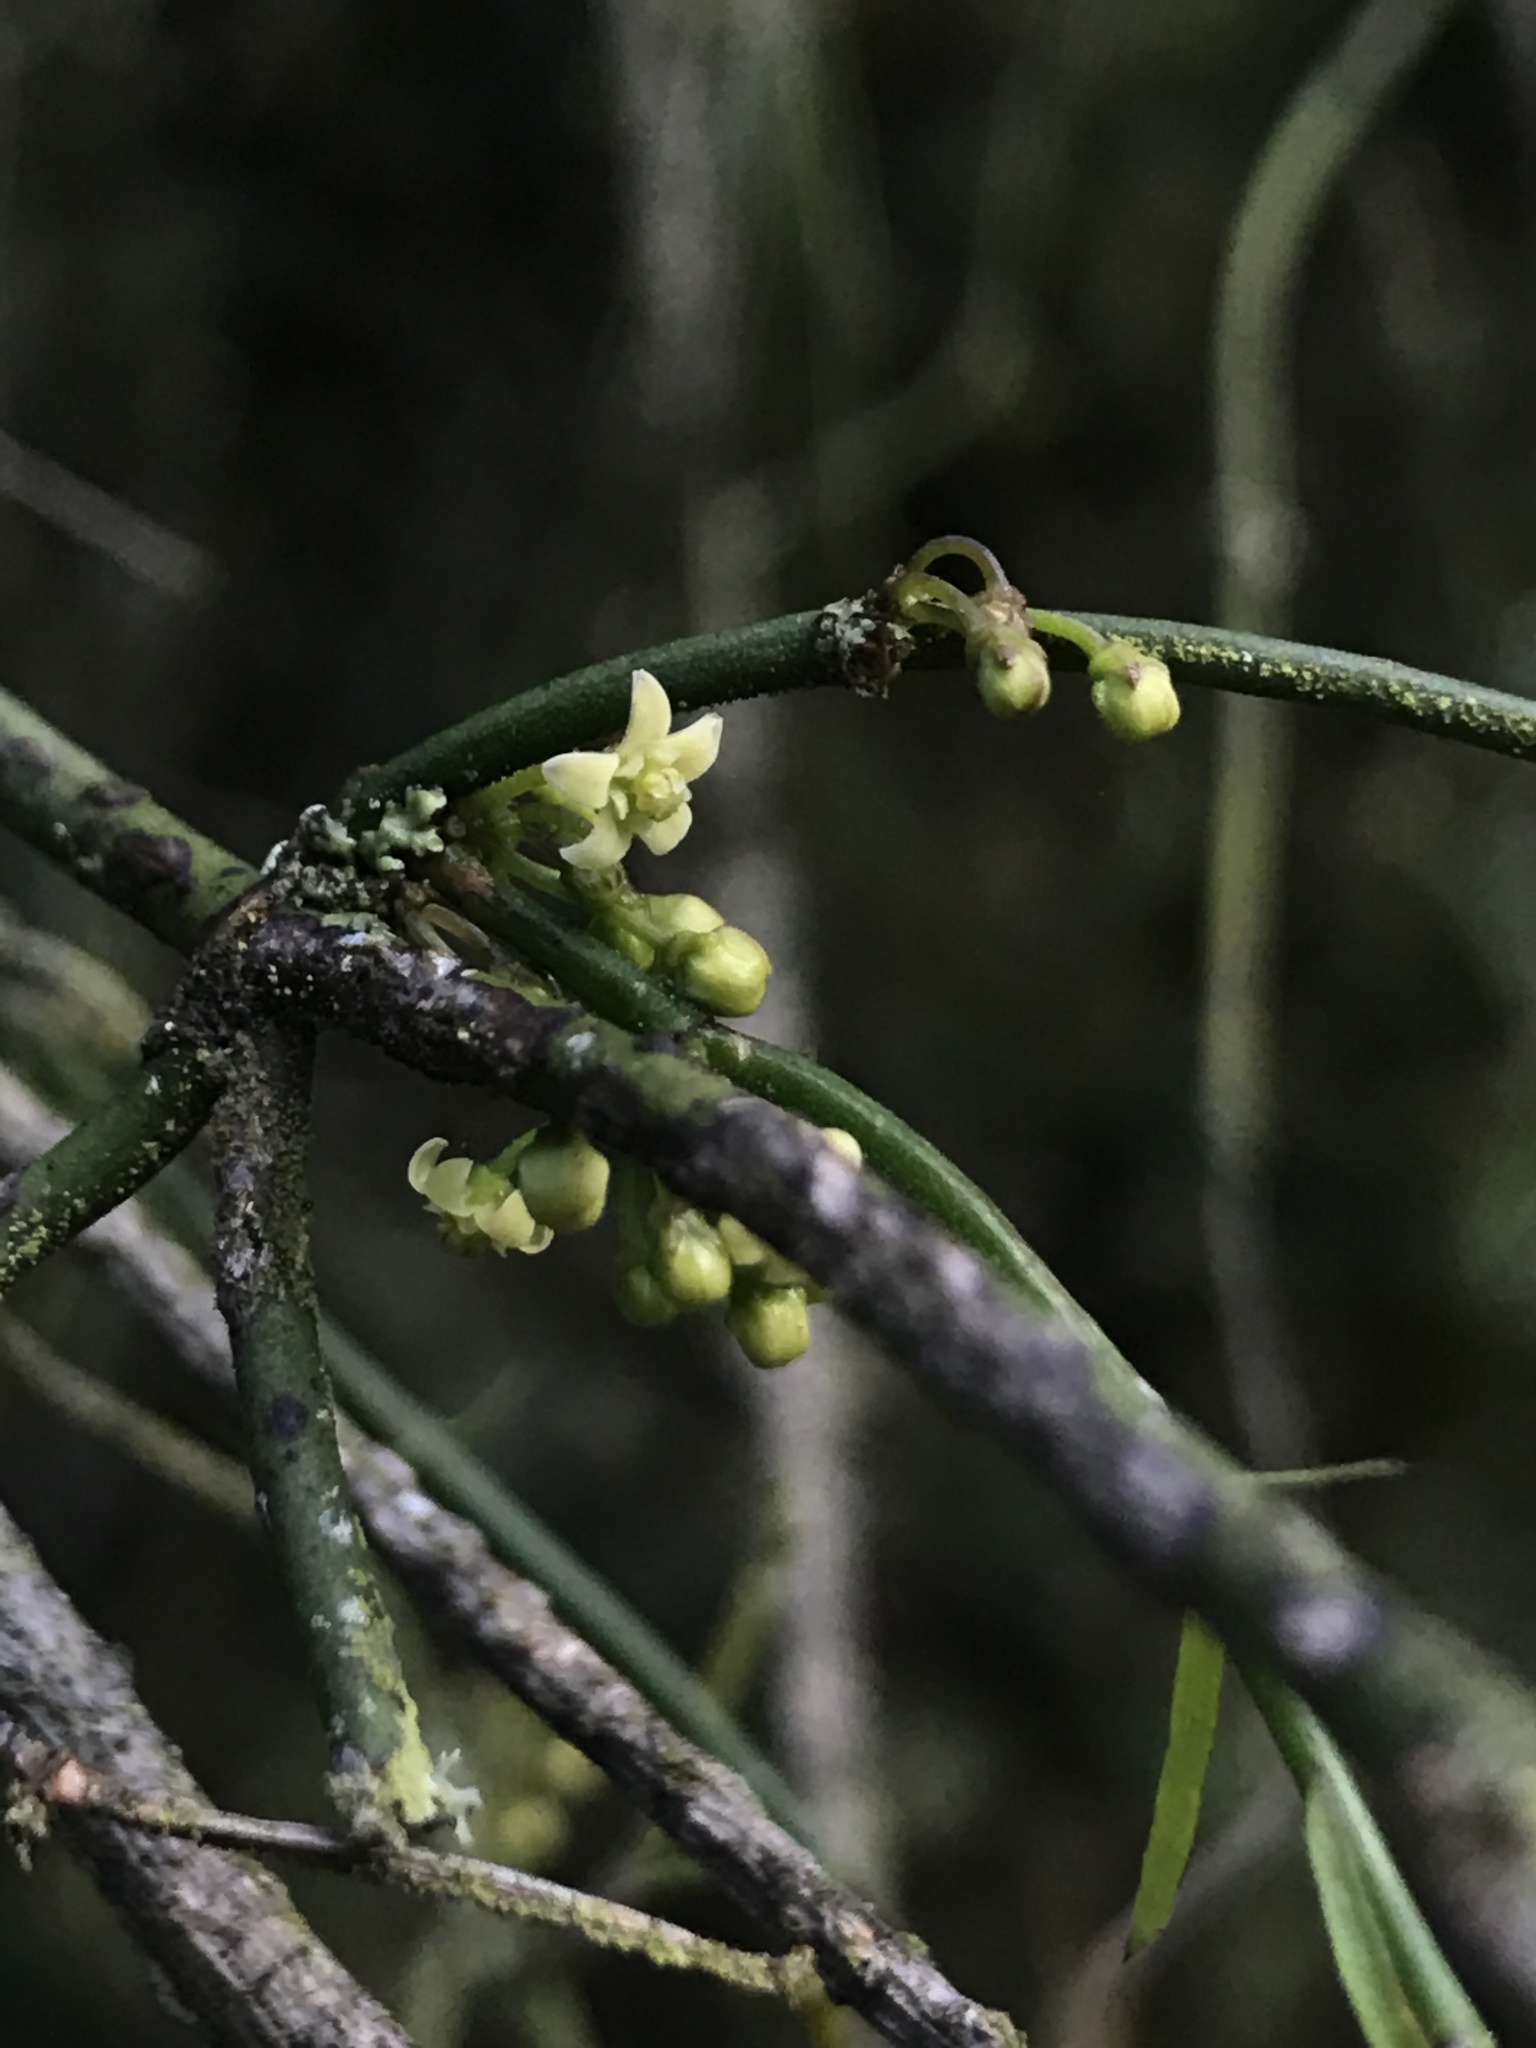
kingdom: Plantae
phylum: Tracheophyta
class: Magnoliopsida
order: Gentianales
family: Apocynaceae
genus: Orthosia
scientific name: Orthosia stenophylla
